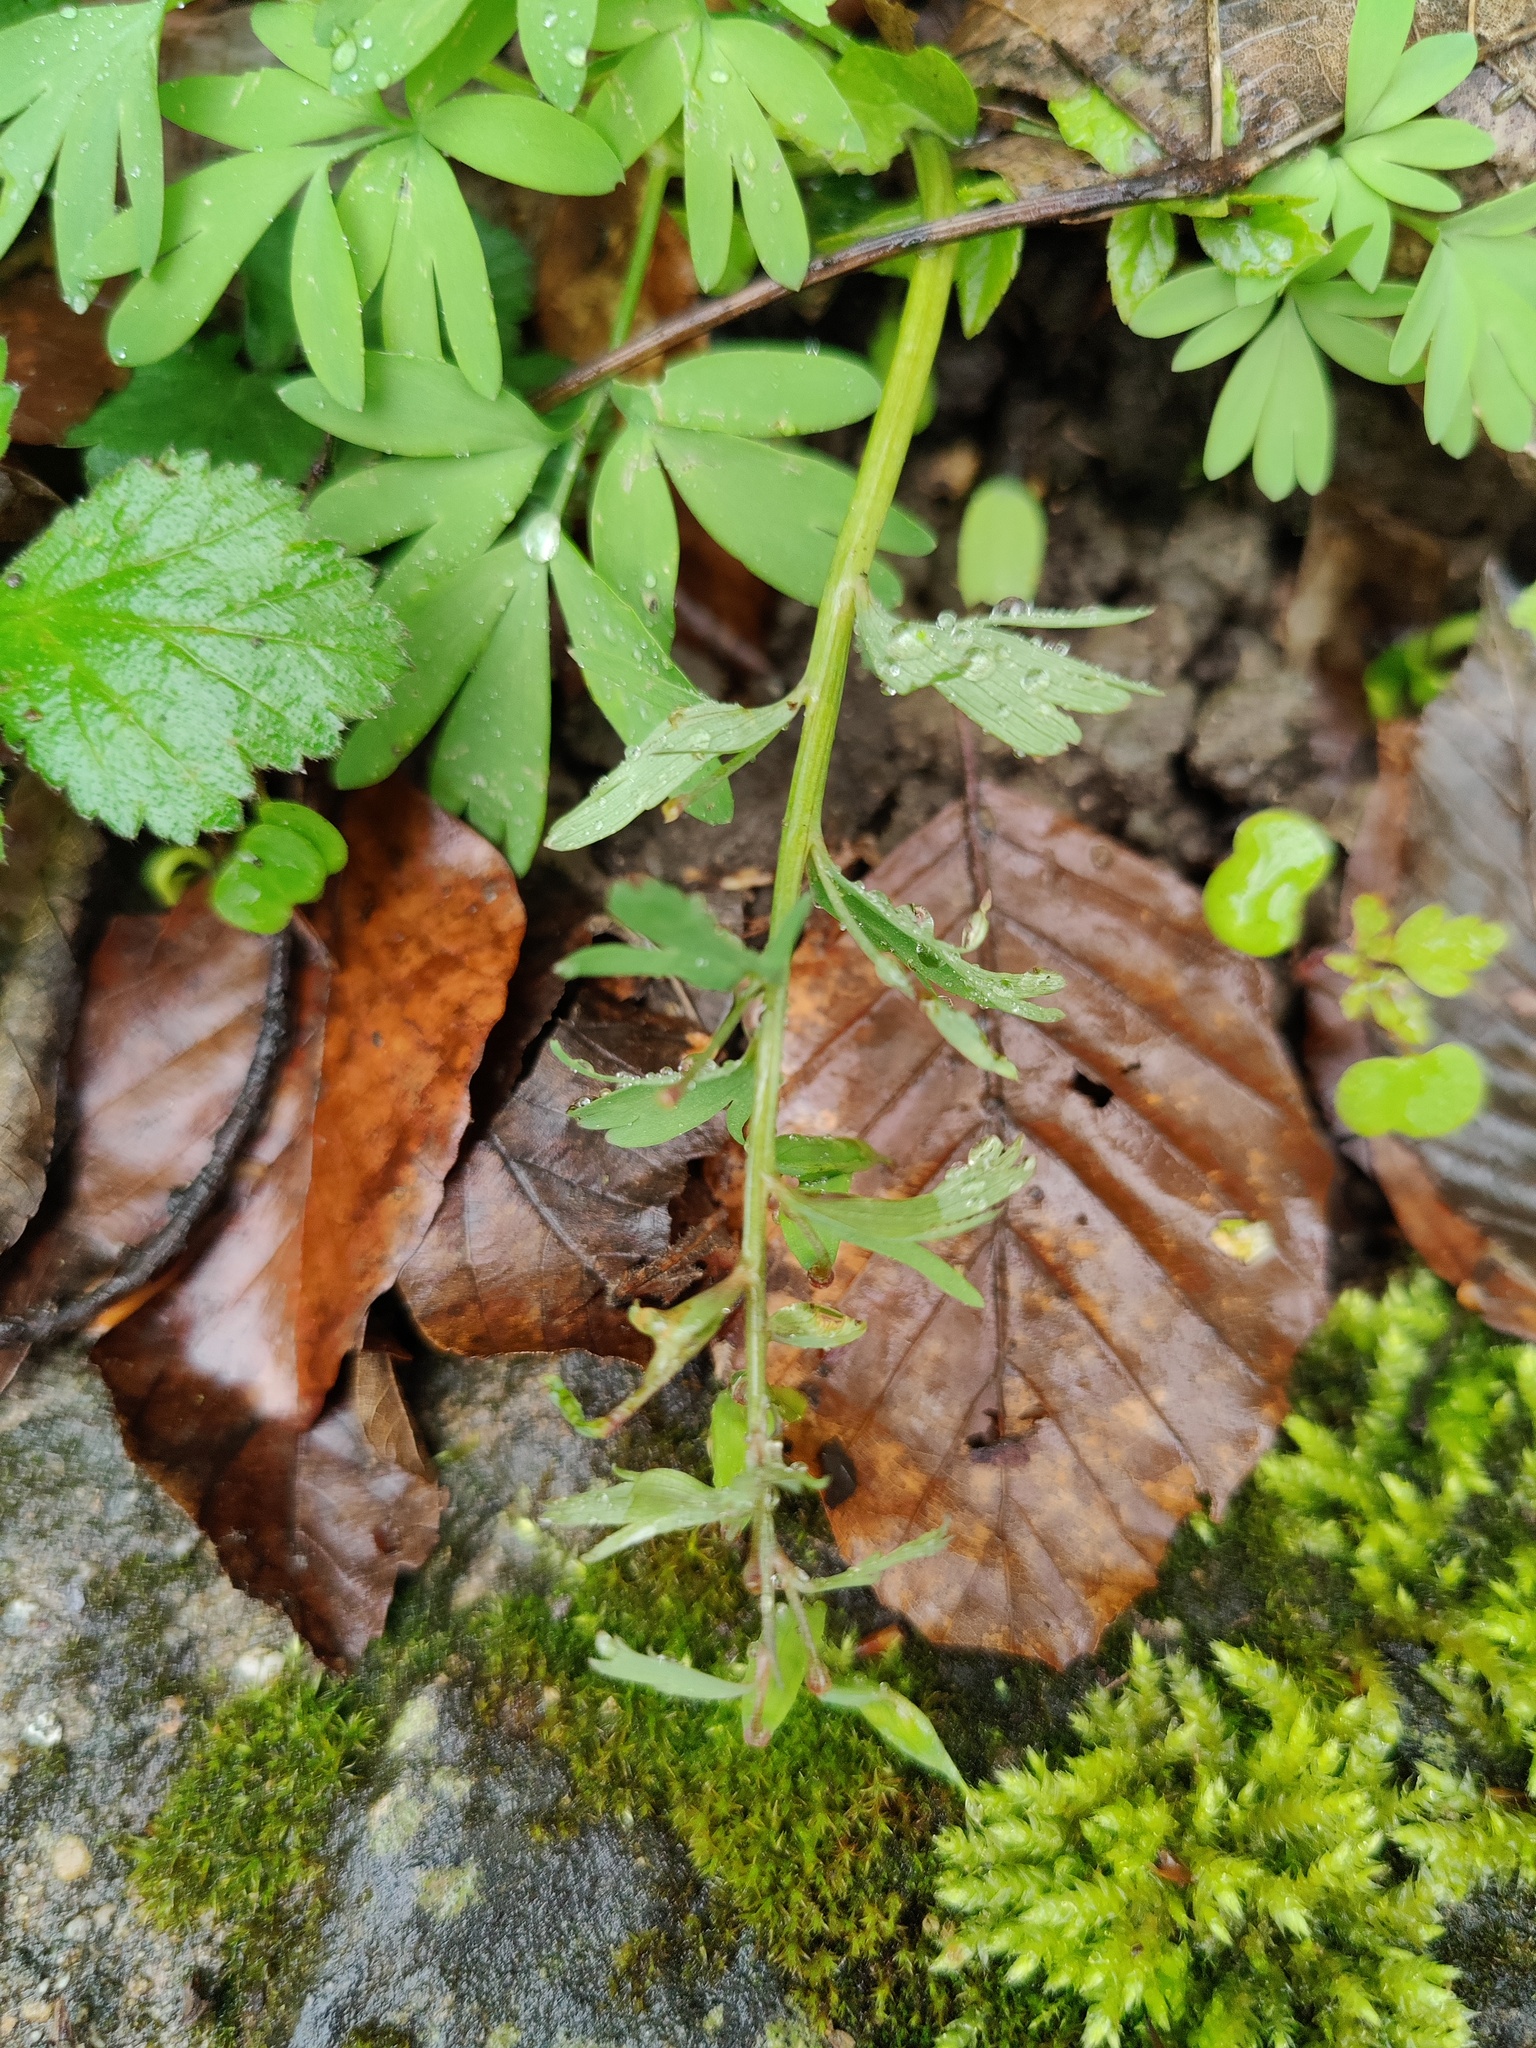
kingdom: Plantae
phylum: Tracheophyta
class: Magnoliopsida
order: Ranunculales
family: Papaveraceae
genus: Corydalis
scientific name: Corydalis solida
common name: Bird-in-a-bush
